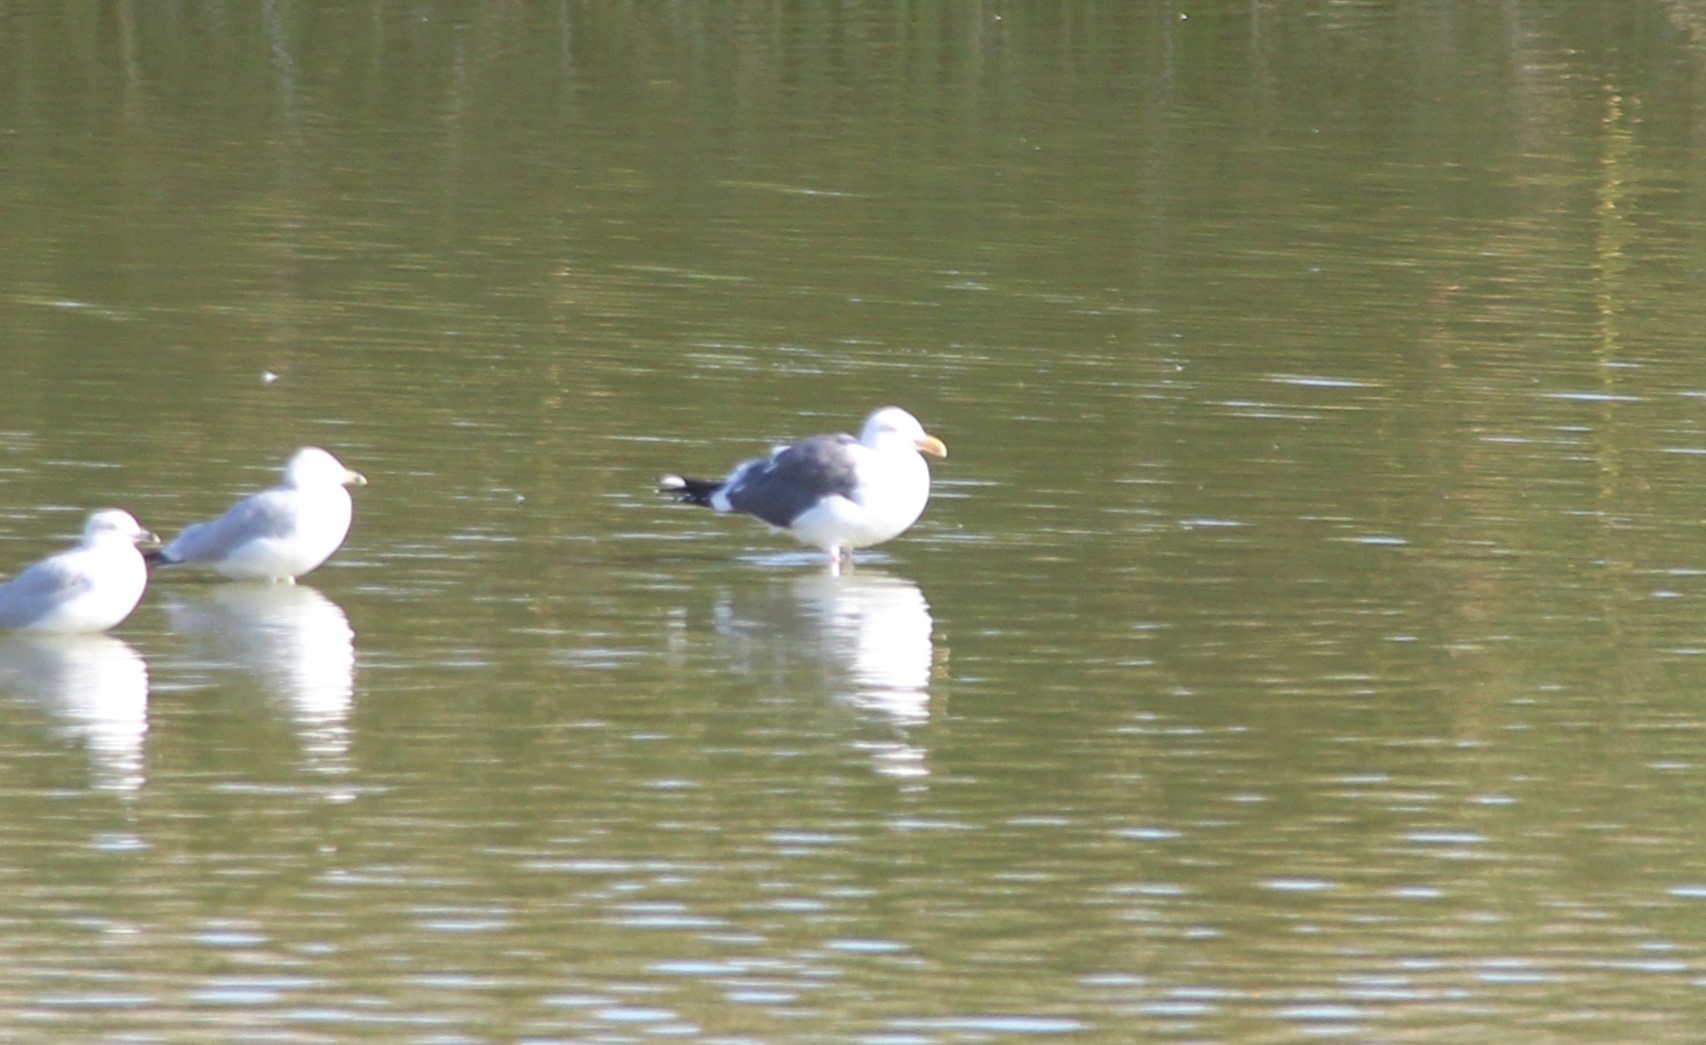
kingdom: Animalia
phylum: Chordata
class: Aves
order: Charadriiformes
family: Laridae
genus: Larus
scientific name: Larus occidentalis
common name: Western gull
